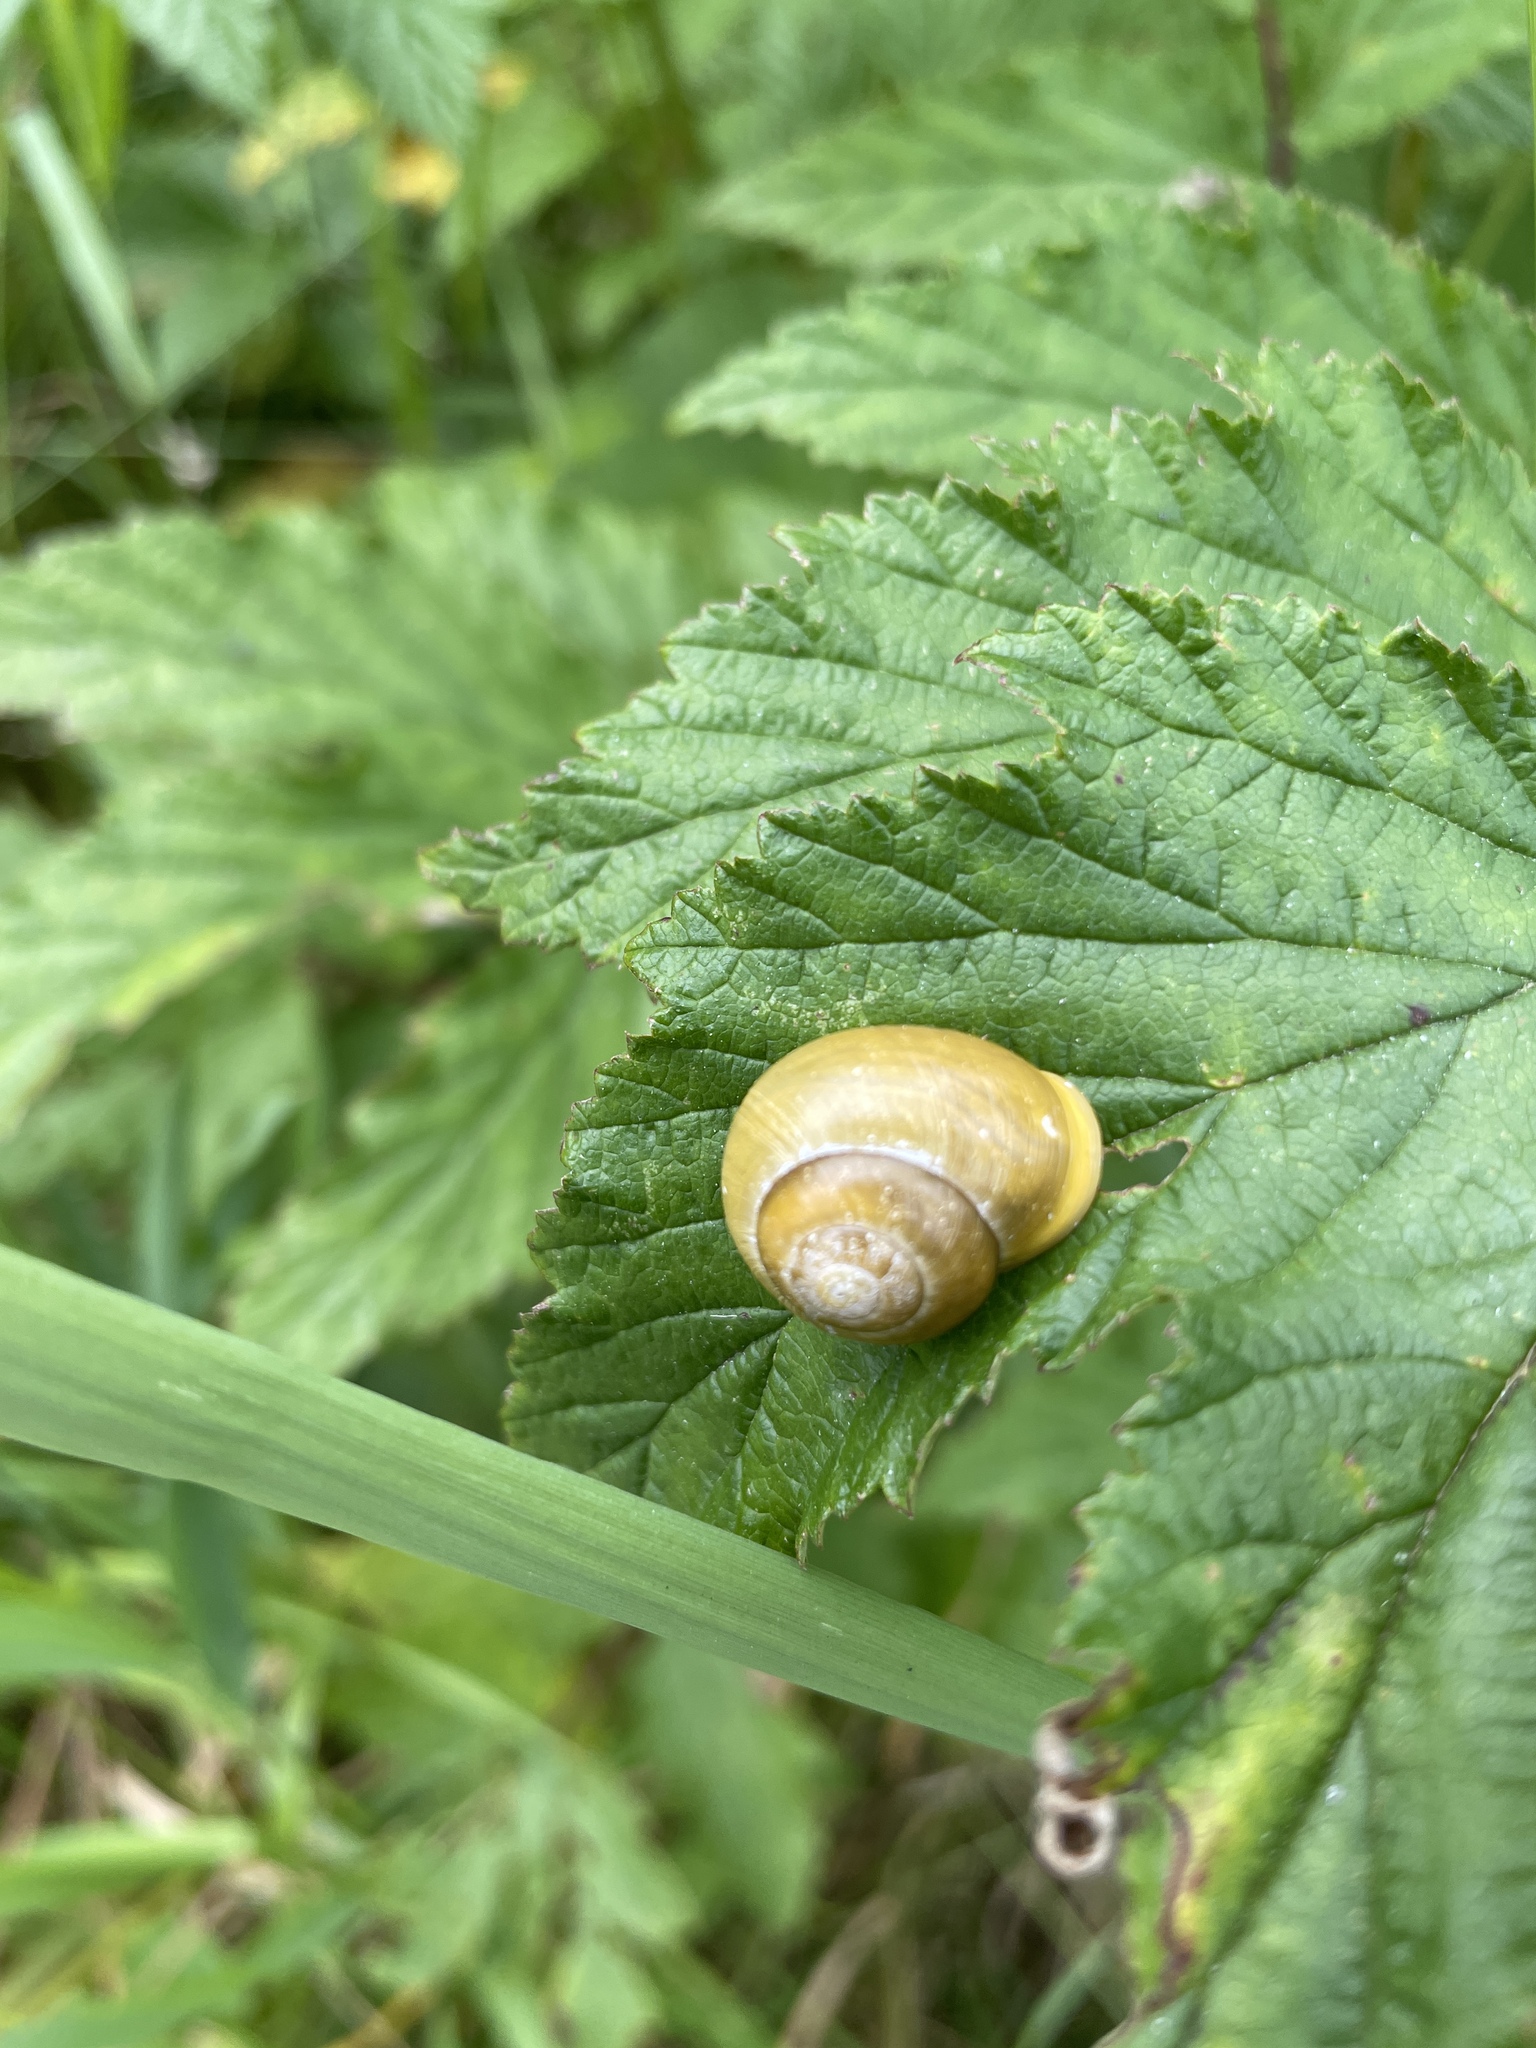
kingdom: Animalia
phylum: Mollusca
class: Gastropoda
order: Stylommatophora
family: Helicidae
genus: Cepaea
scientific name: Cepaea hortensis
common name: White-lip gardensnail
